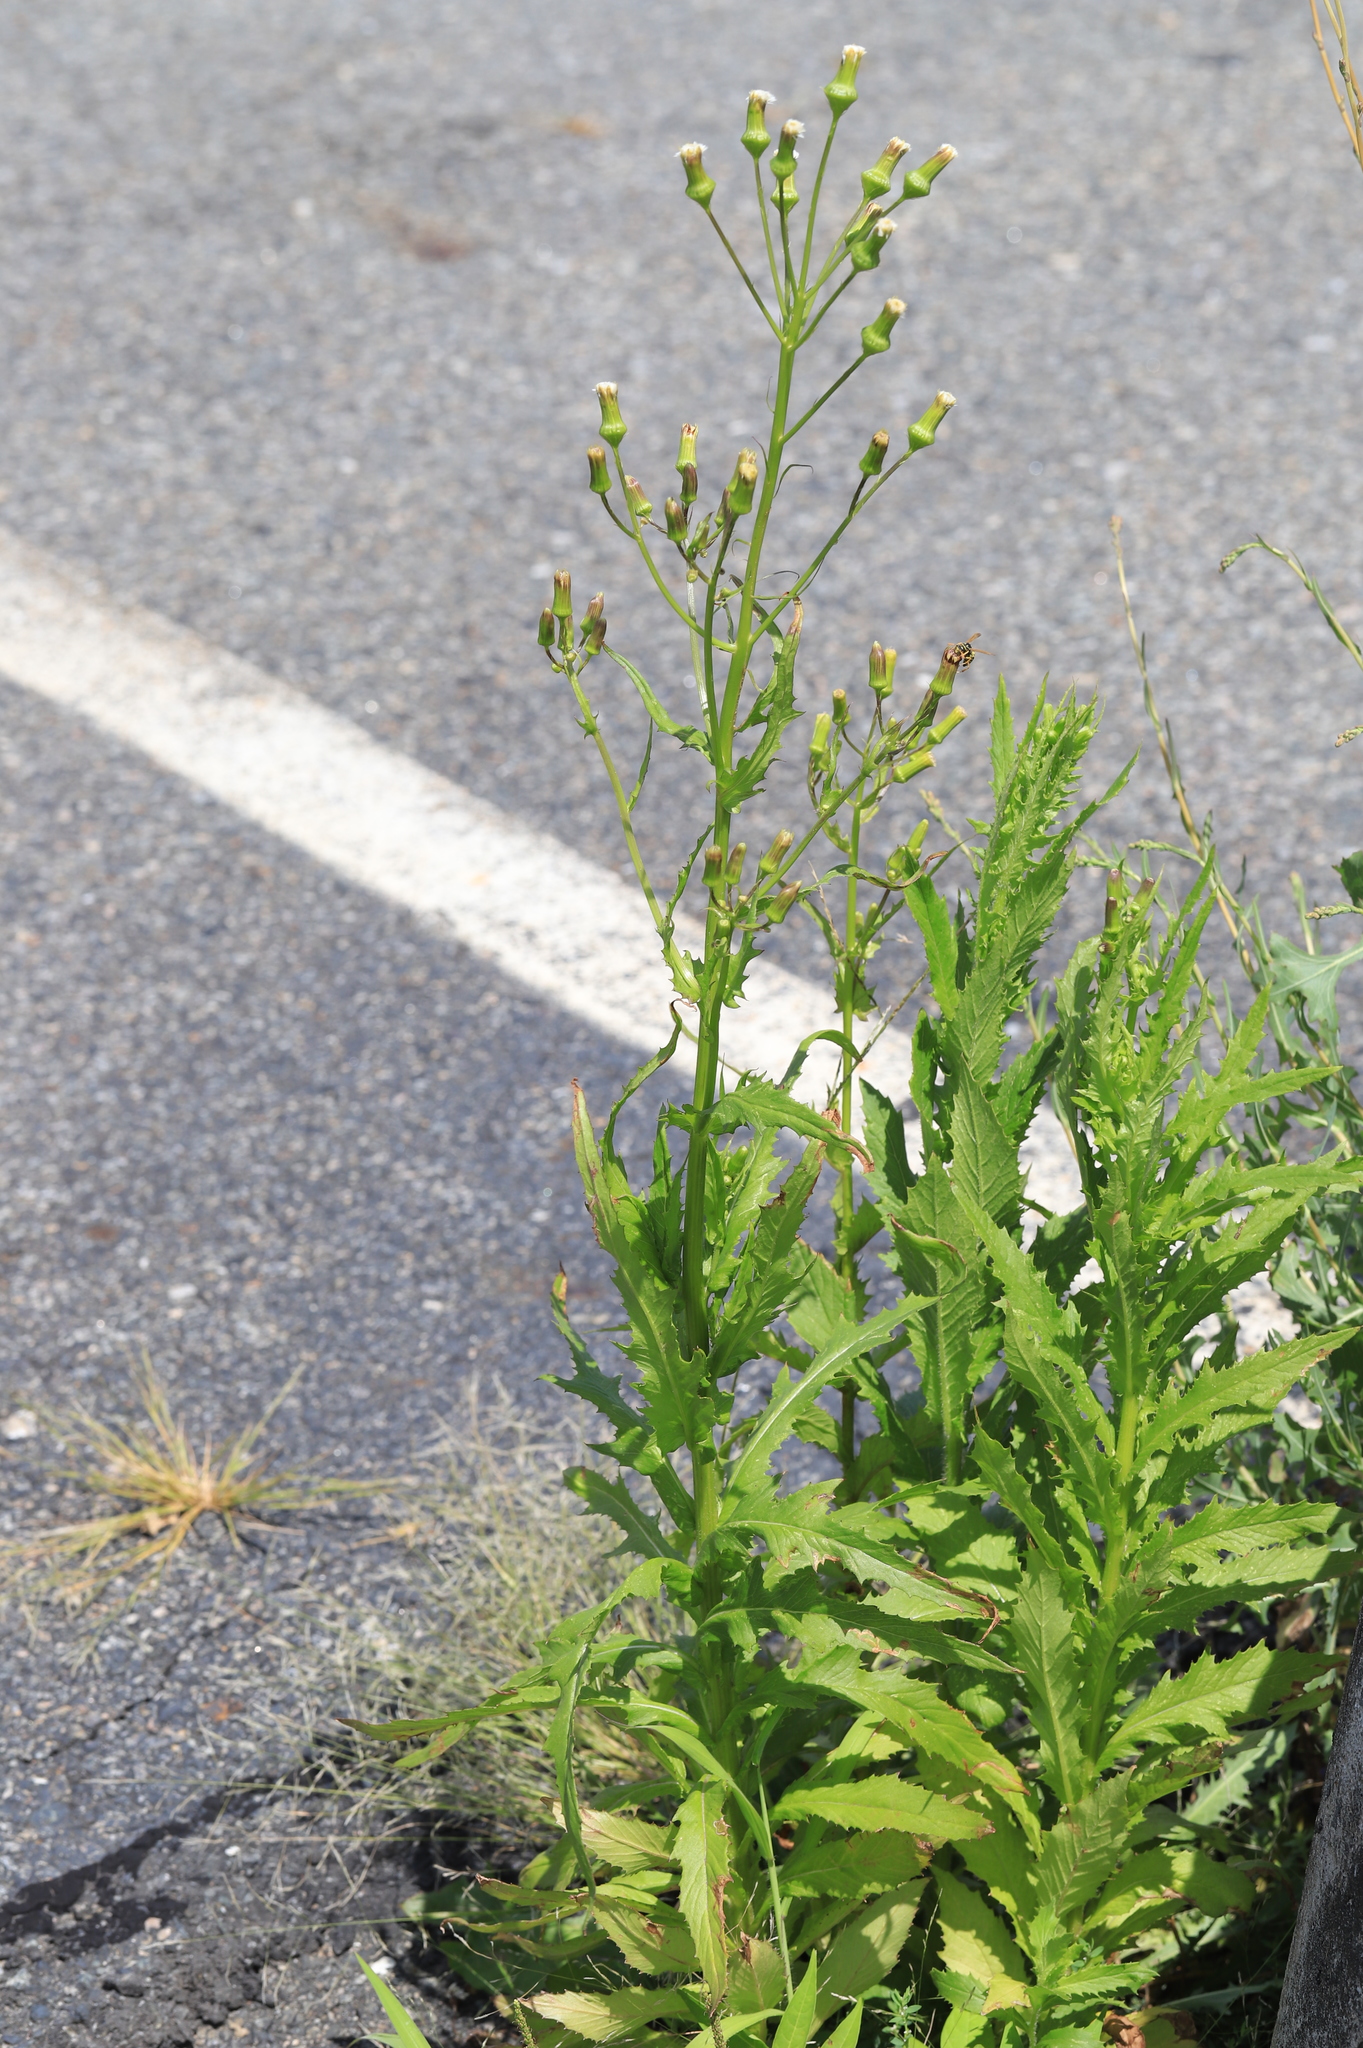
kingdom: Plantae
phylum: Tracheophyta
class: Magnoliopsida
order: Asterales
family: Asteraceae
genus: Erechtites
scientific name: Erechtites hieraciifolius
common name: American burnweed
